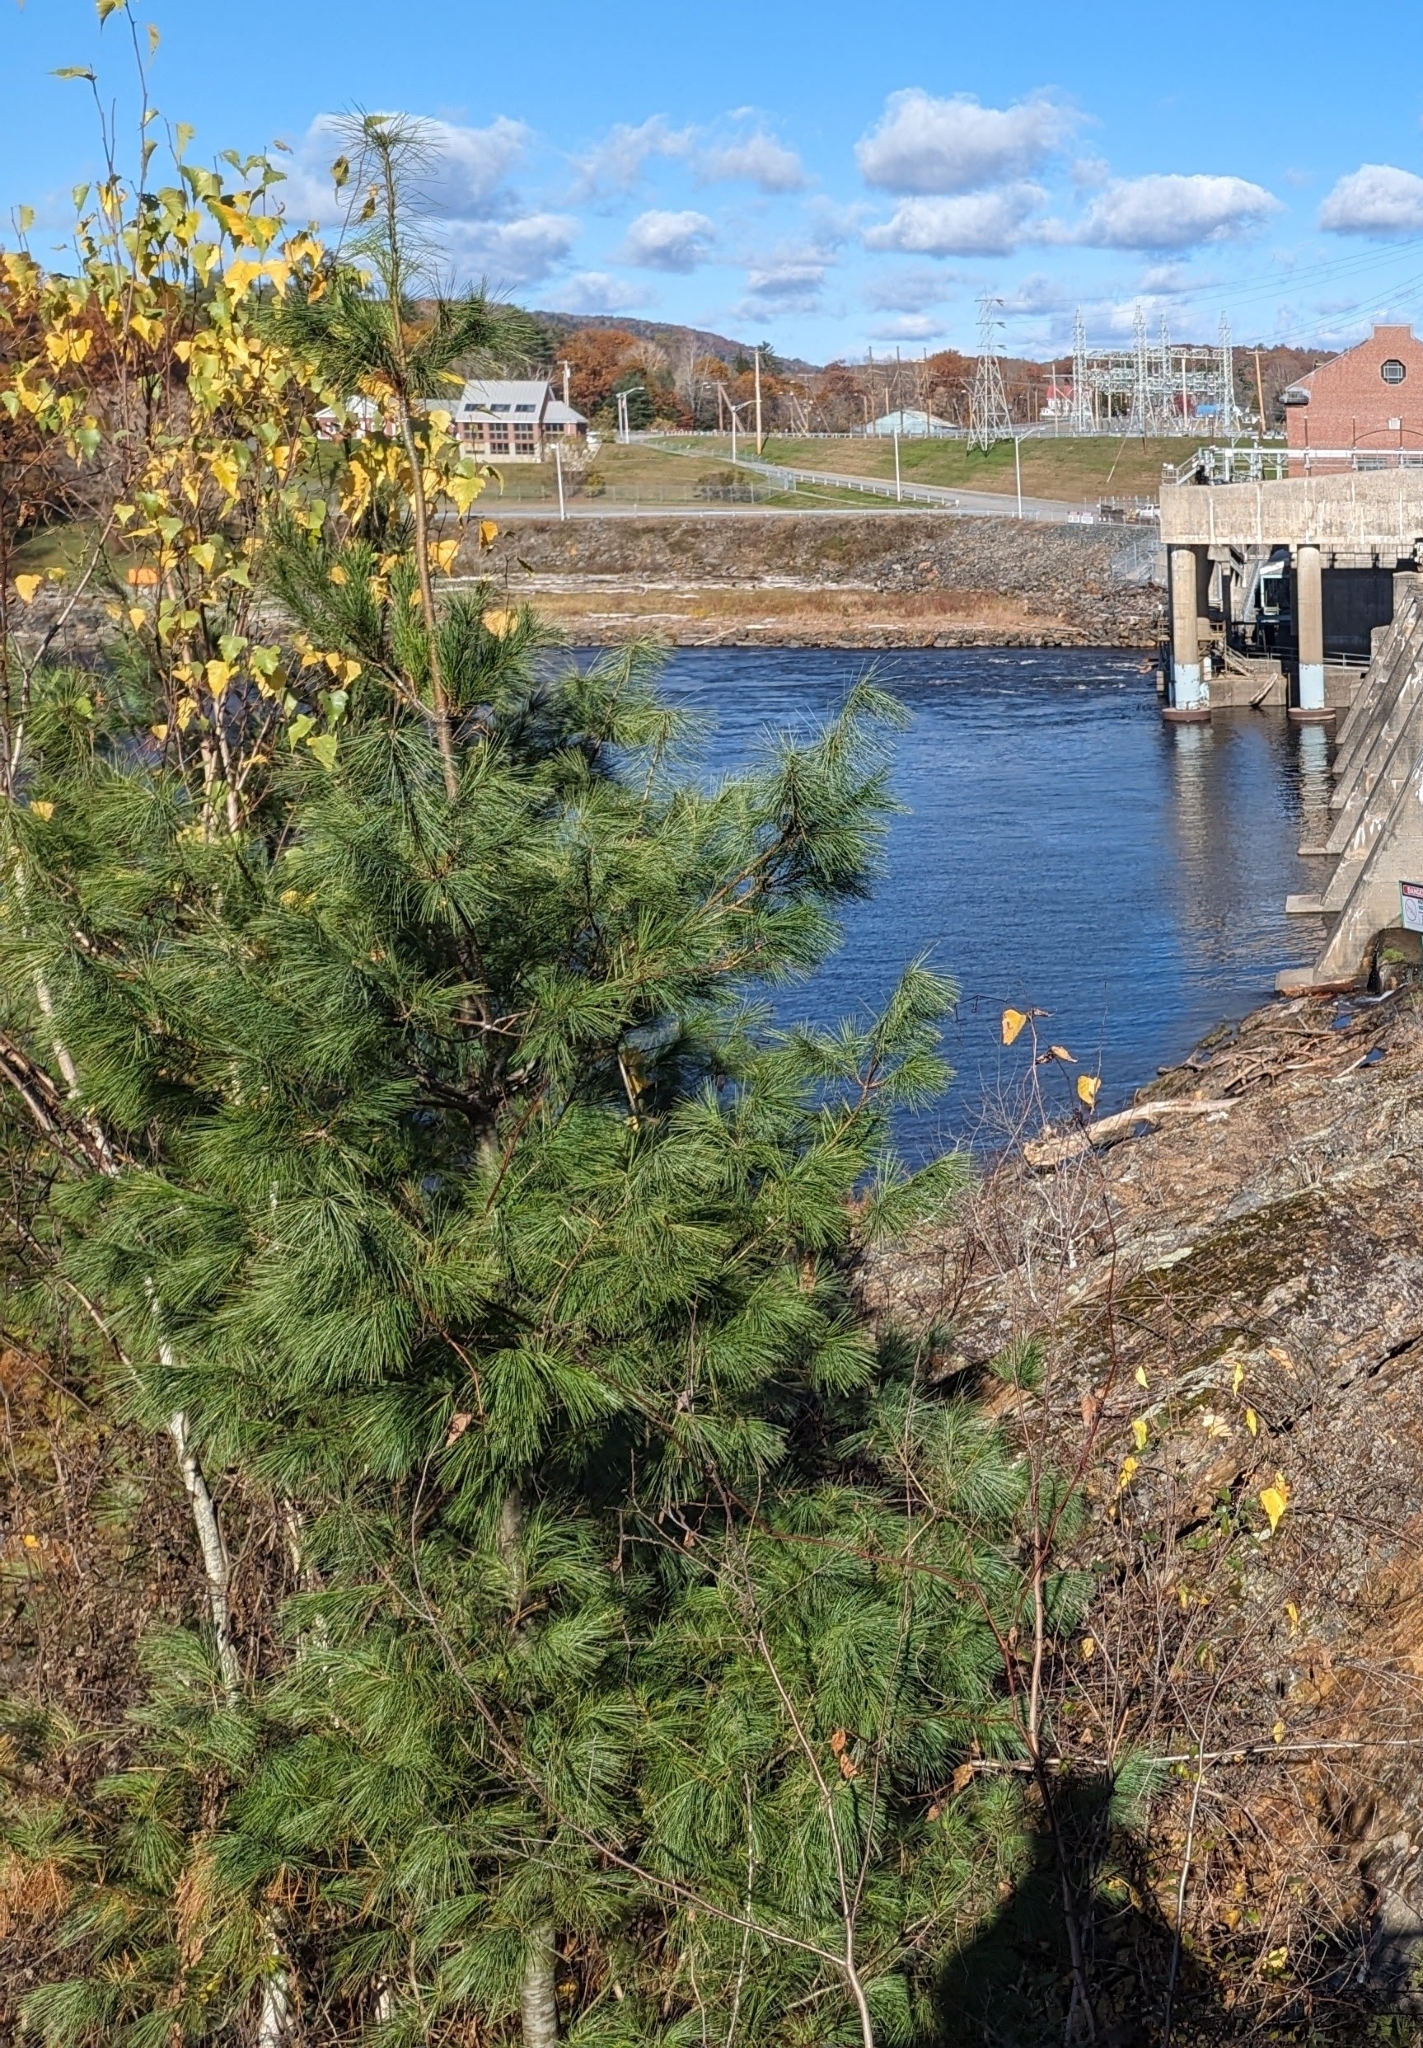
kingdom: Plantae
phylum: Tracheophyta
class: Pinopsida
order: Pinales
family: Pinaceae
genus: Pinus
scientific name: Pinus strobus
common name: Weymouth pine
